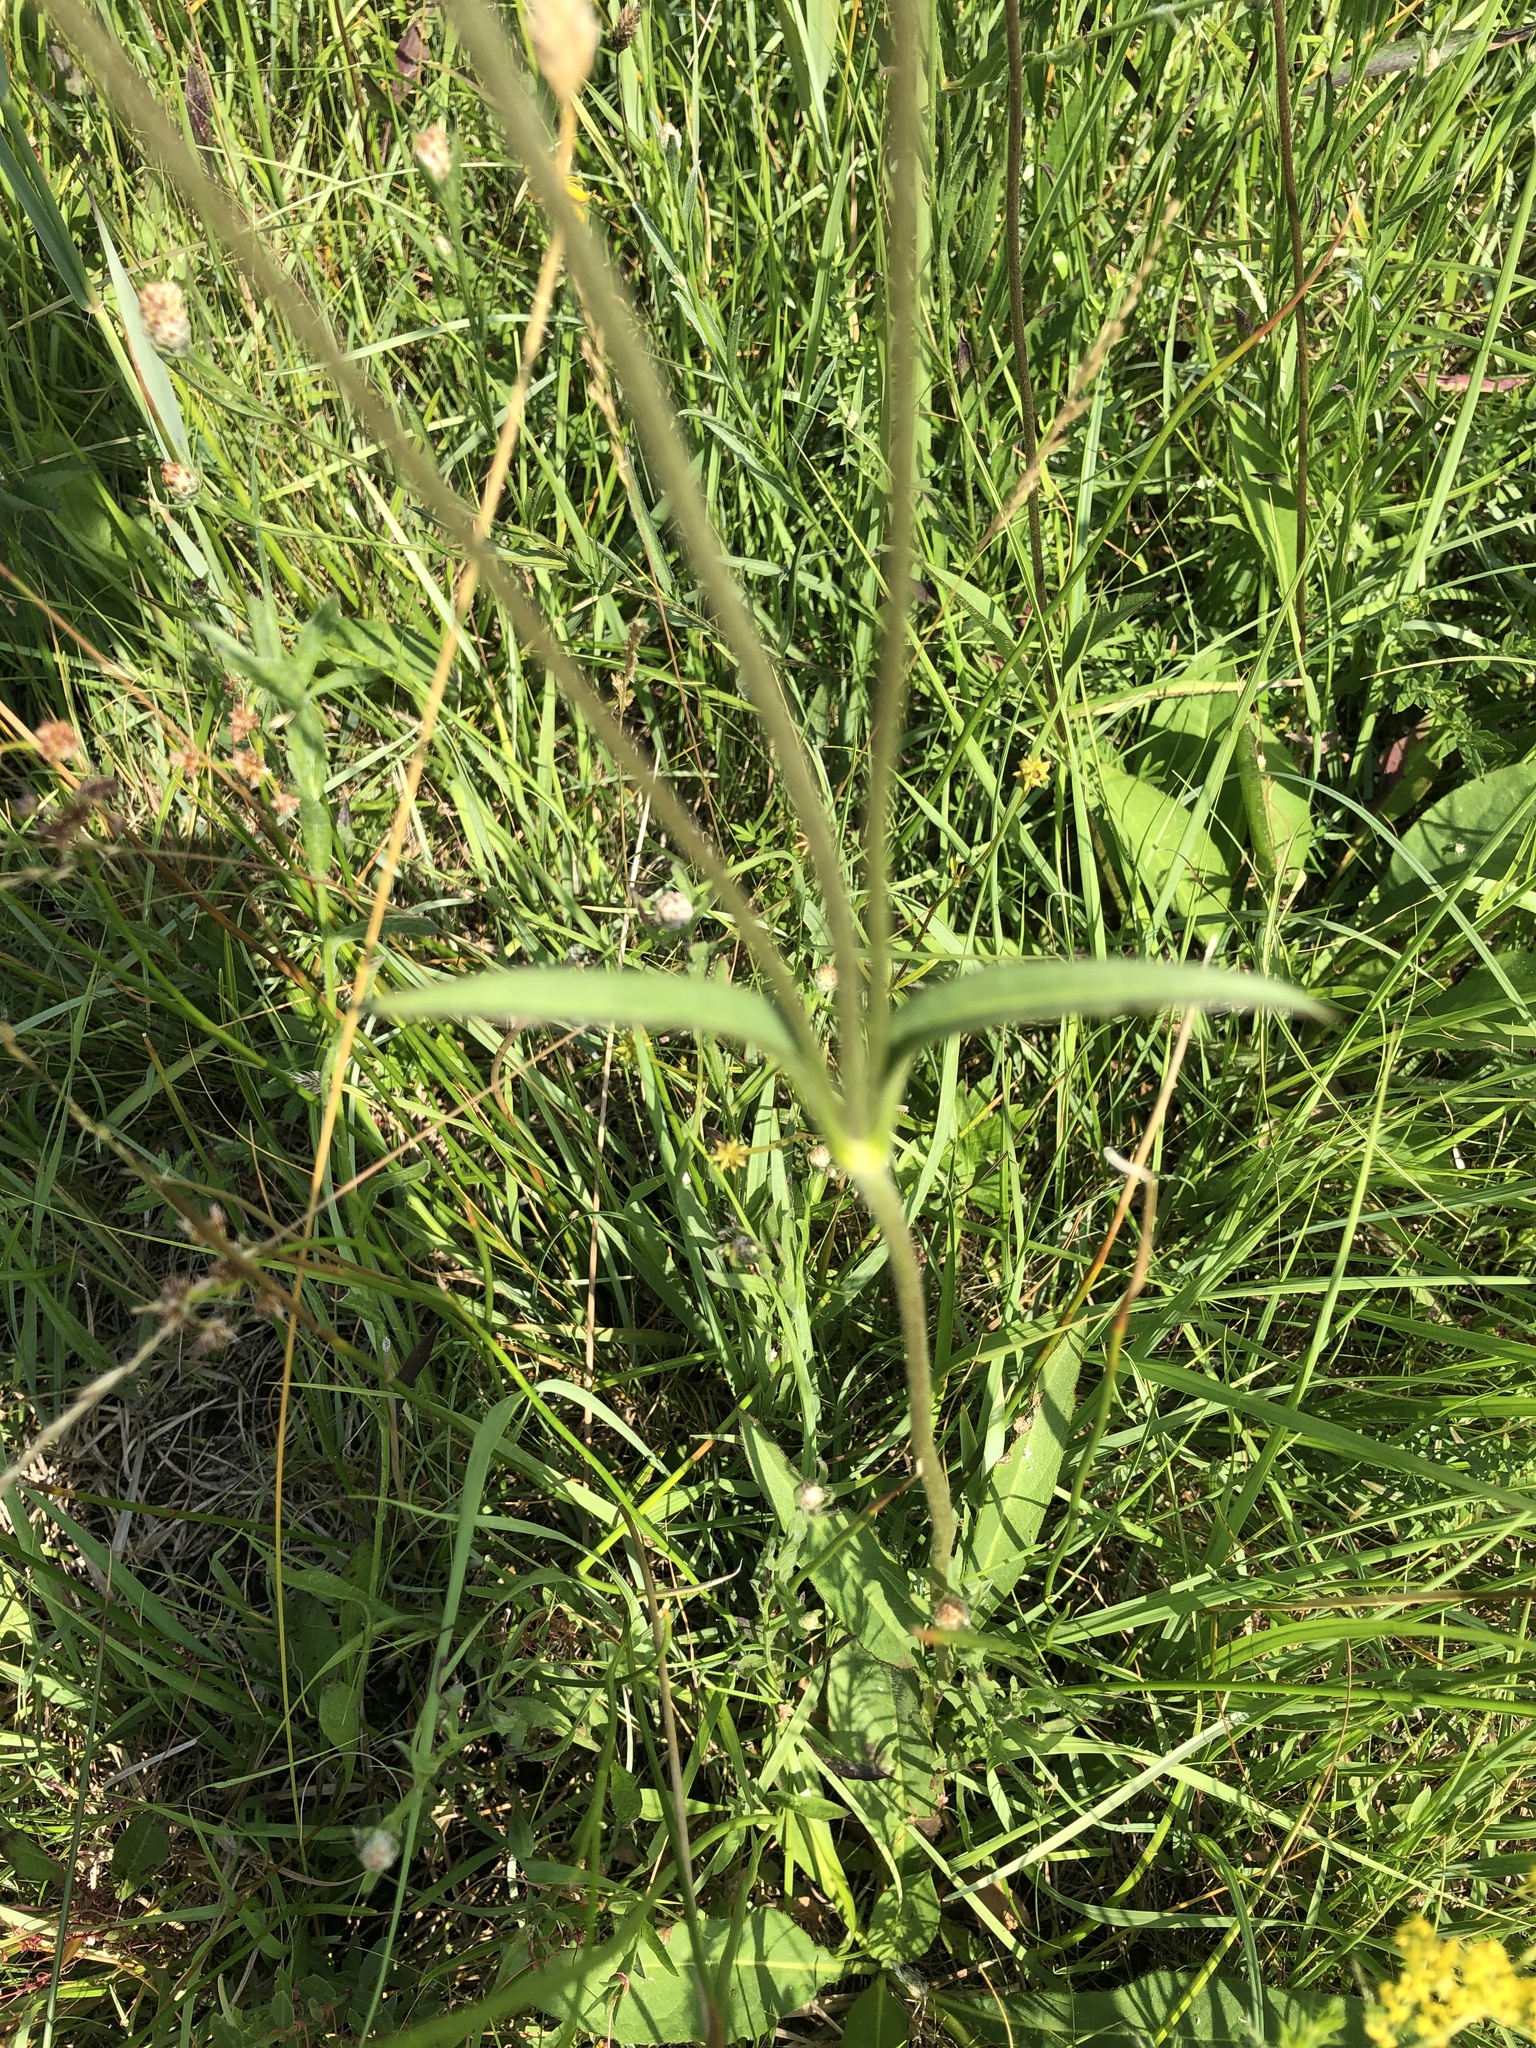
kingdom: Plantae
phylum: Tracheophyta
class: Magnoliopsida
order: Dipsacales
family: Caprifoliaceae
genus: Succisa
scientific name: Succisa pratensis
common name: Devil's-bit
